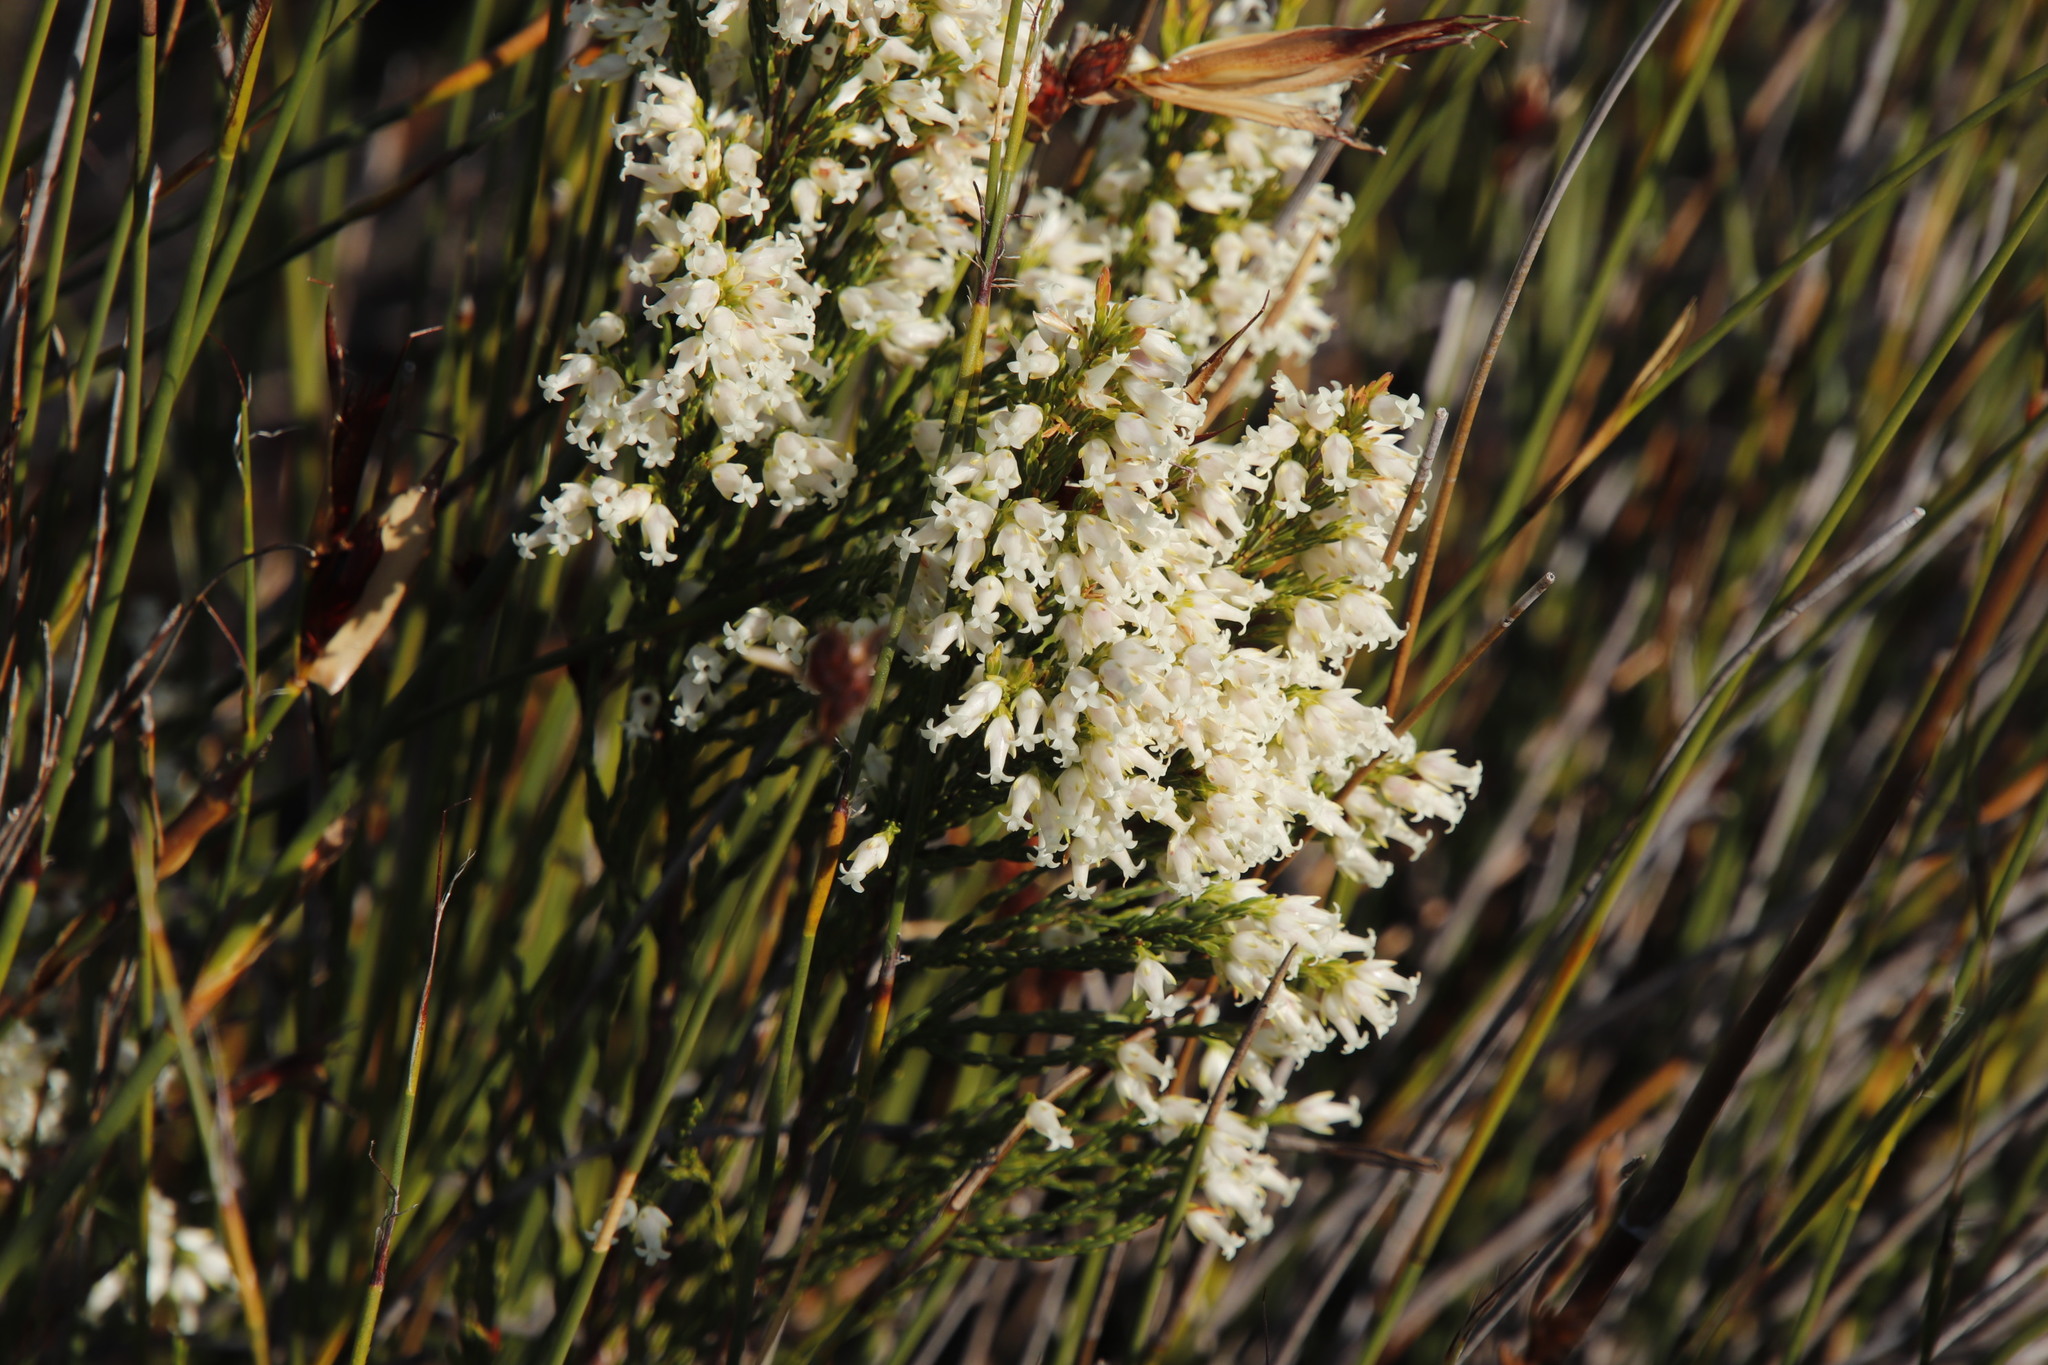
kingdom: Plantae
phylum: Tracheophyta
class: Magnoliopsida
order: Ericales
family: Ericaceae
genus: Erica
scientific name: Erica lutea
